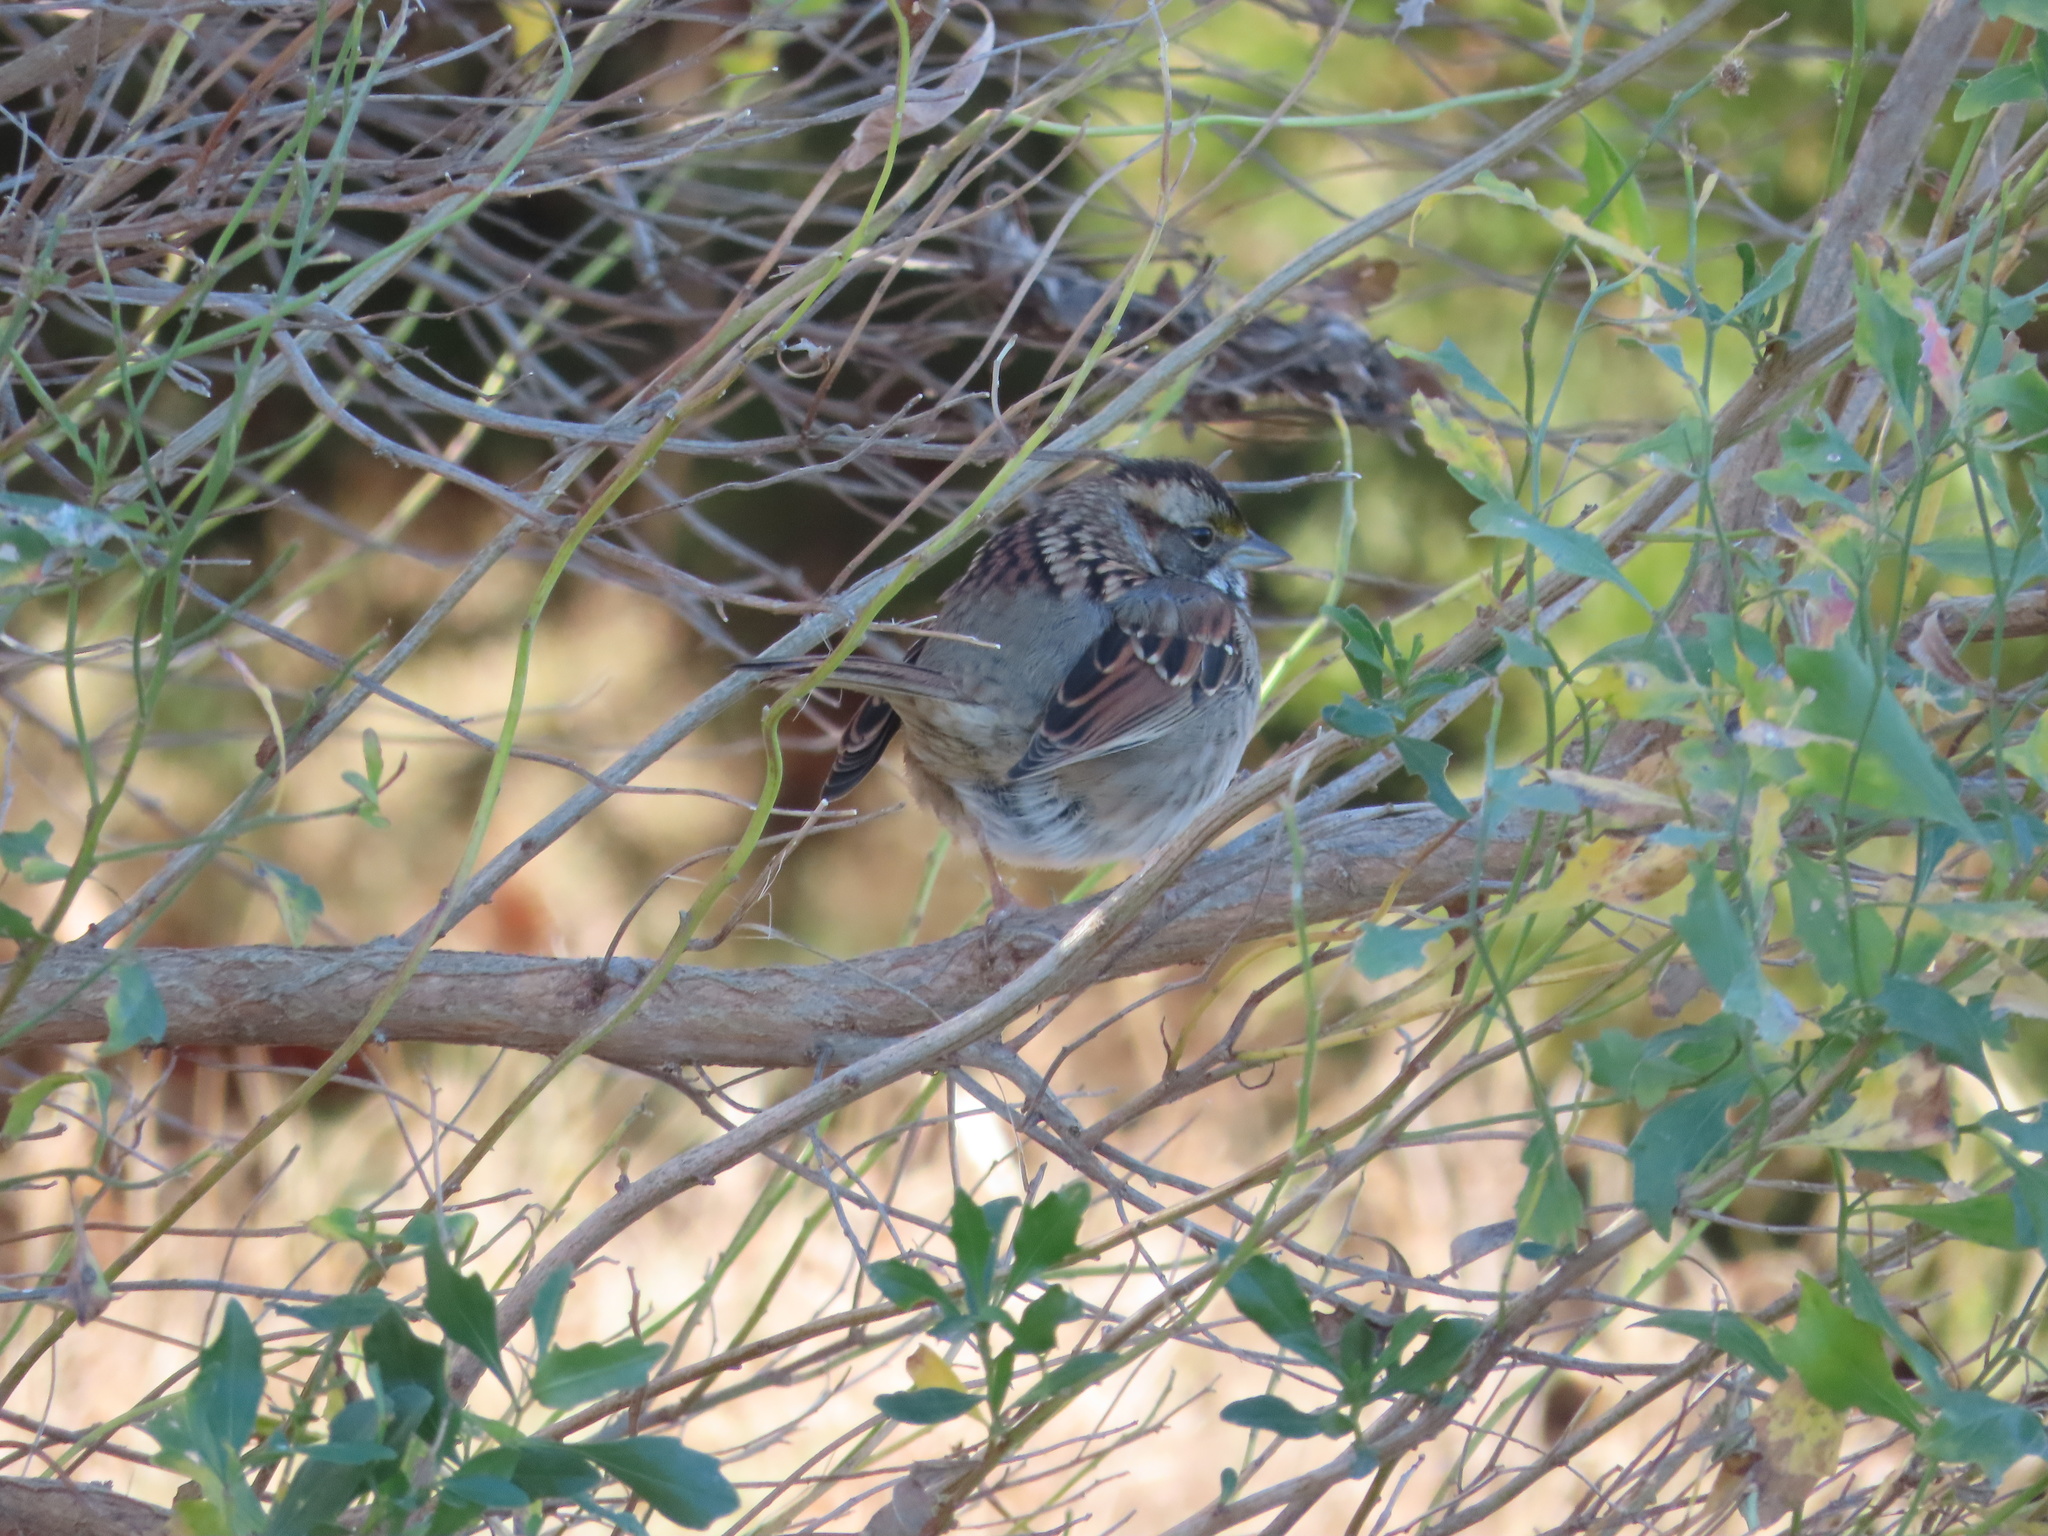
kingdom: Animalia
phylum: Chordata
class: Aves
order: Passeriformes
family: Passerellidae
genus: Zonotrichia
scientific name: Zonotrichia albicollis
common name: White-throated sparrow
